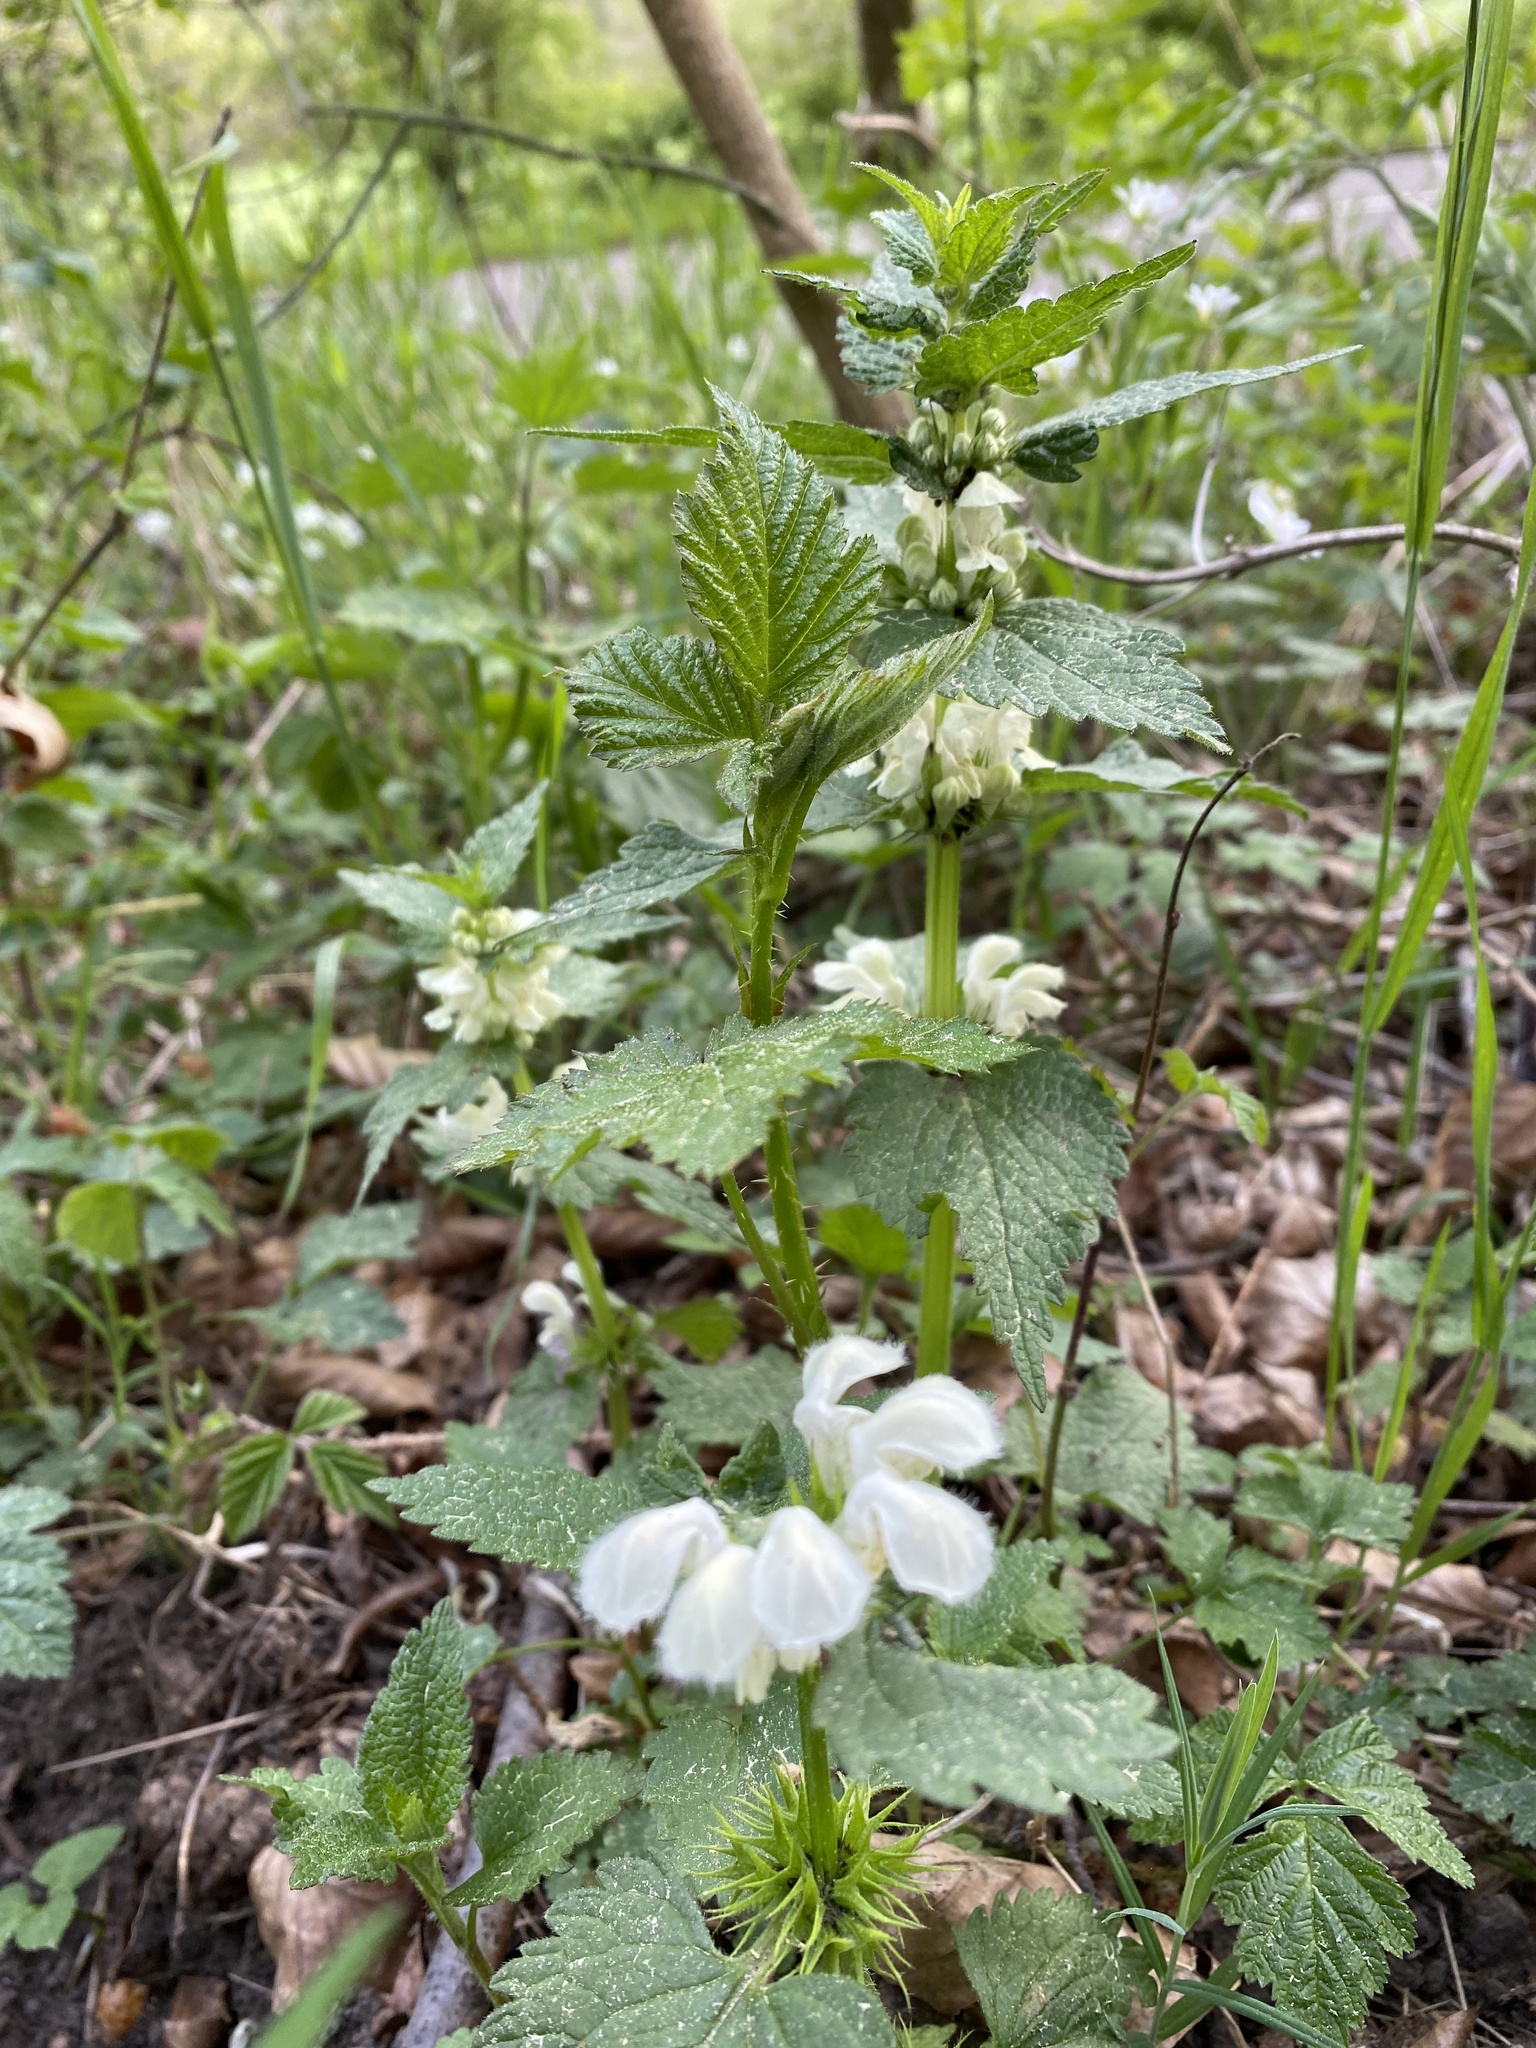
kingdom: Plantae
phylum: Tracheophyta
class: Magnoliopsida
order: Lamiales
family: Lamiaceae
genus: Lamium
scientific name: Lamium album
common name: White dead-nettle
